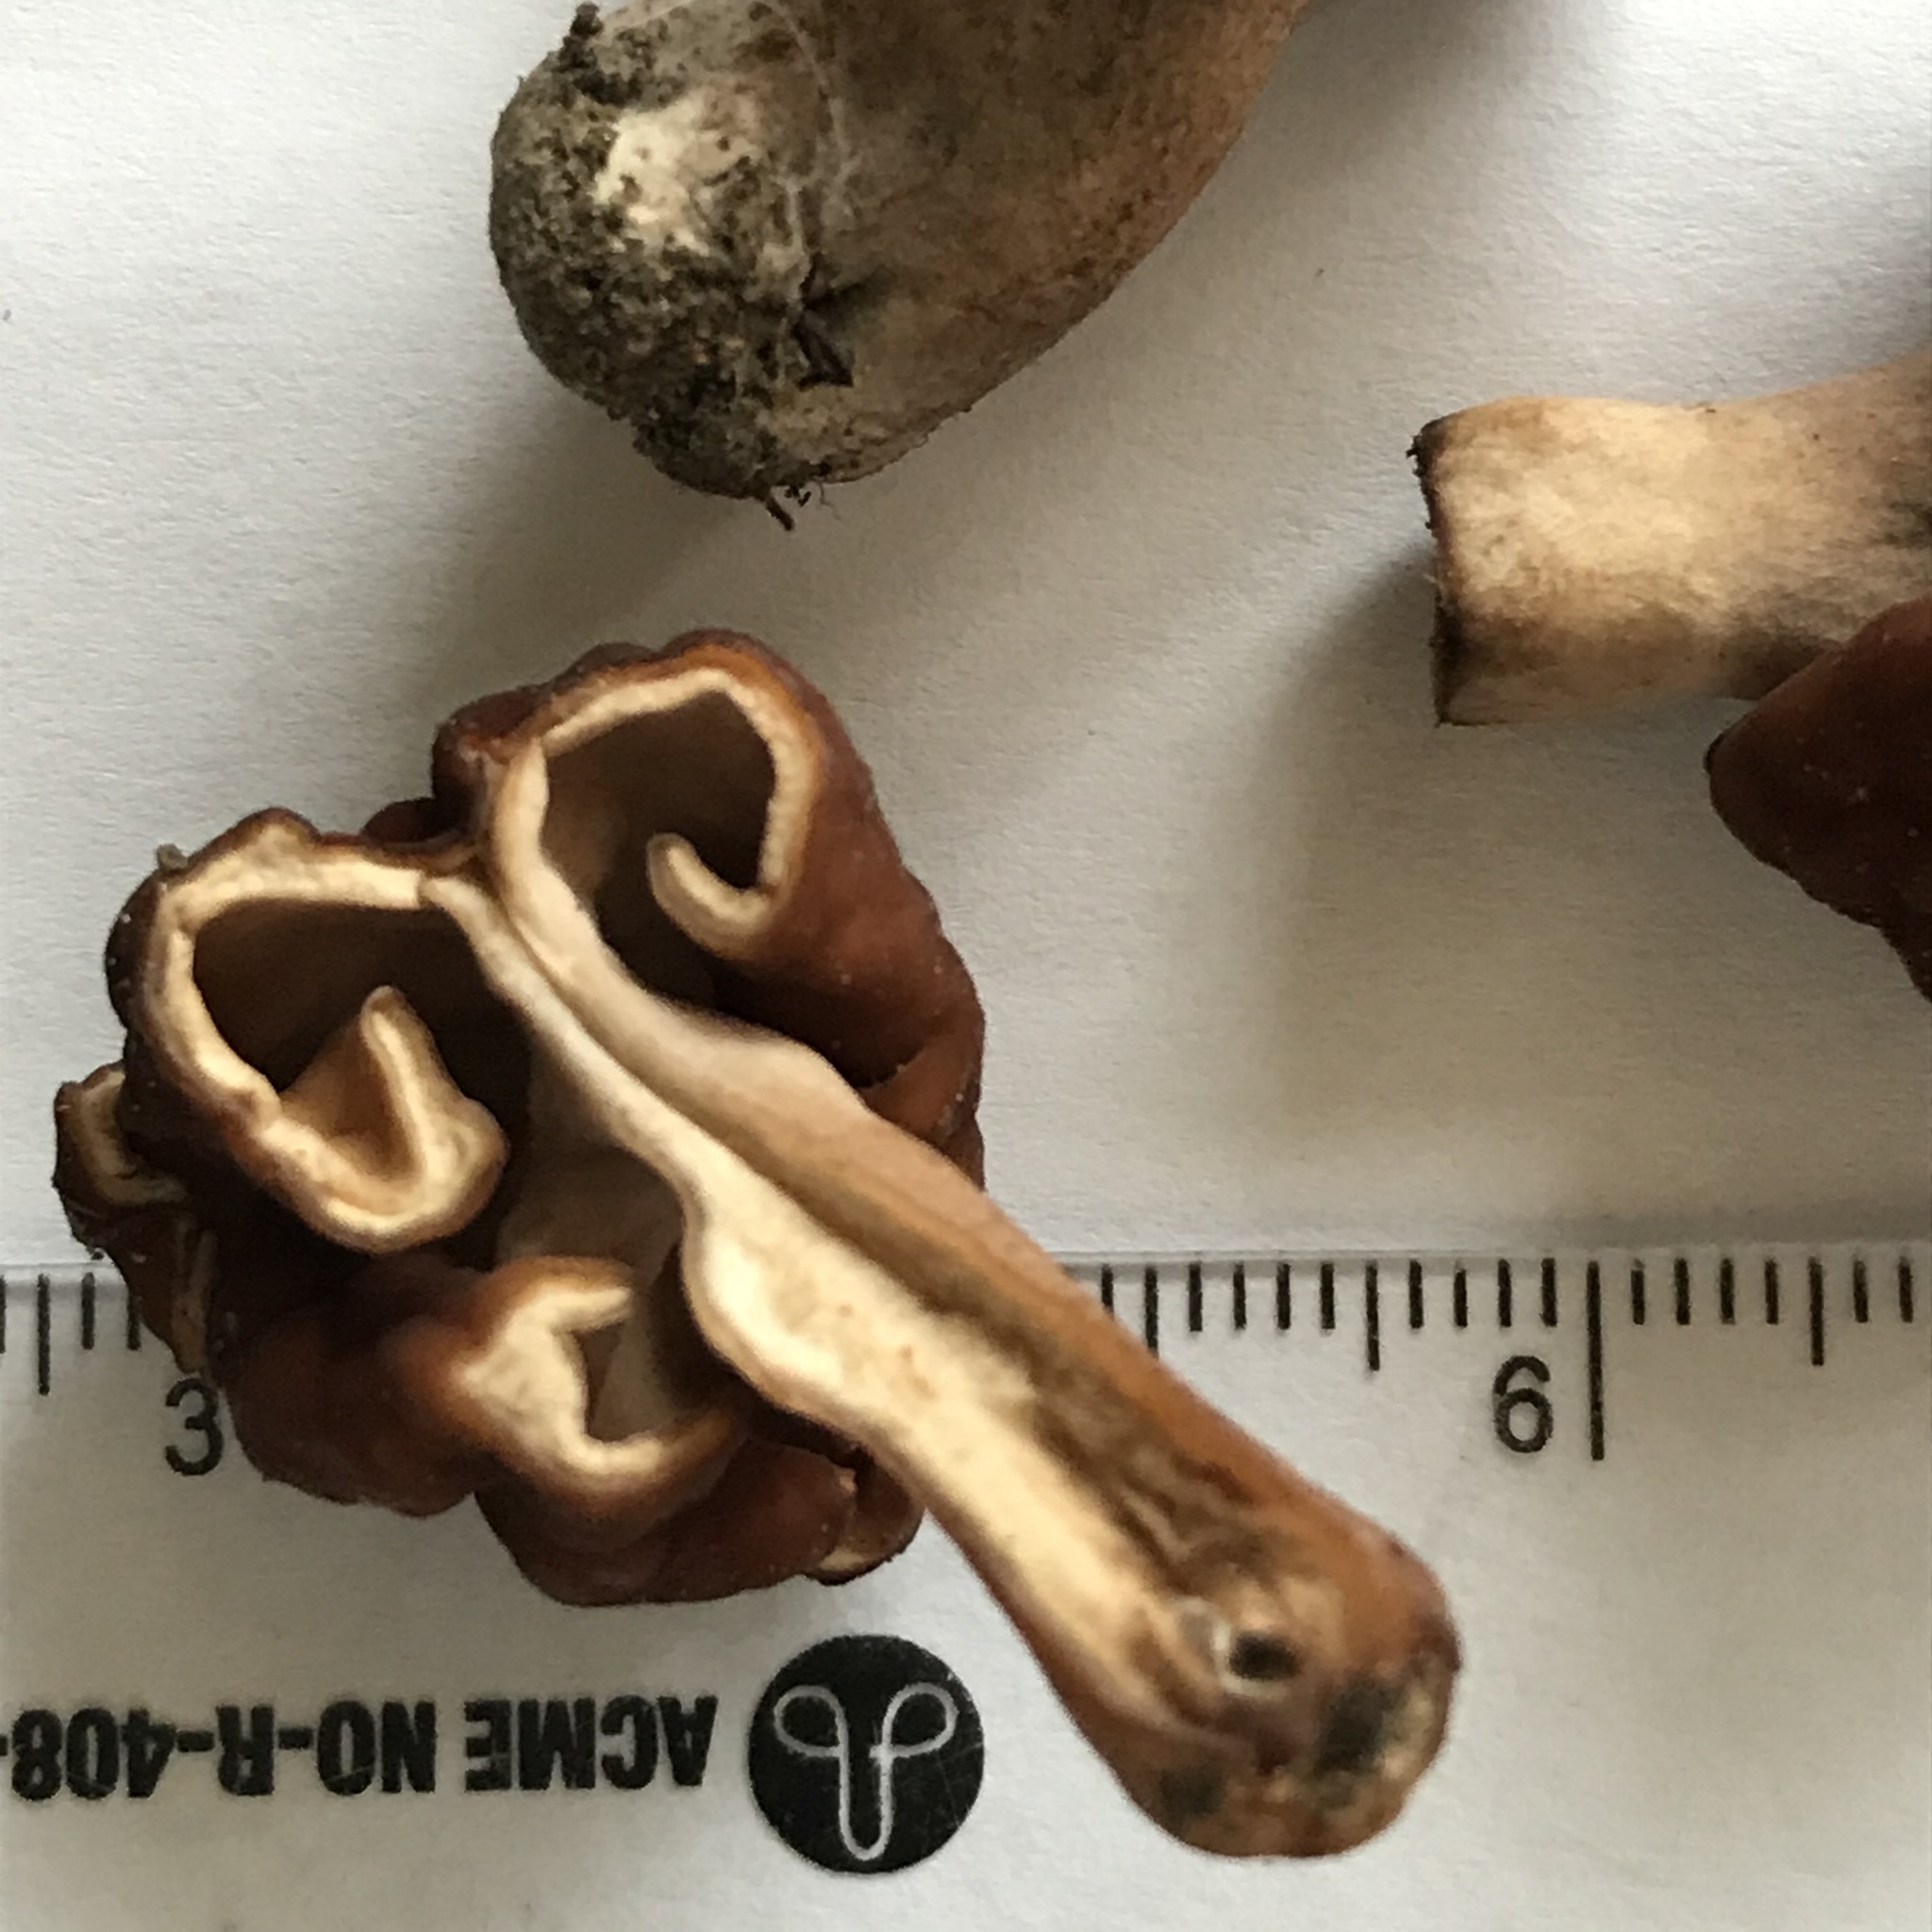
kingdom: Fungi
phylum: Ascomycota
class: Pezizomycetes
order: Pezizales
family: Discinaceae
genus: Gyromitra
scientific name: Gyromitra venenata
